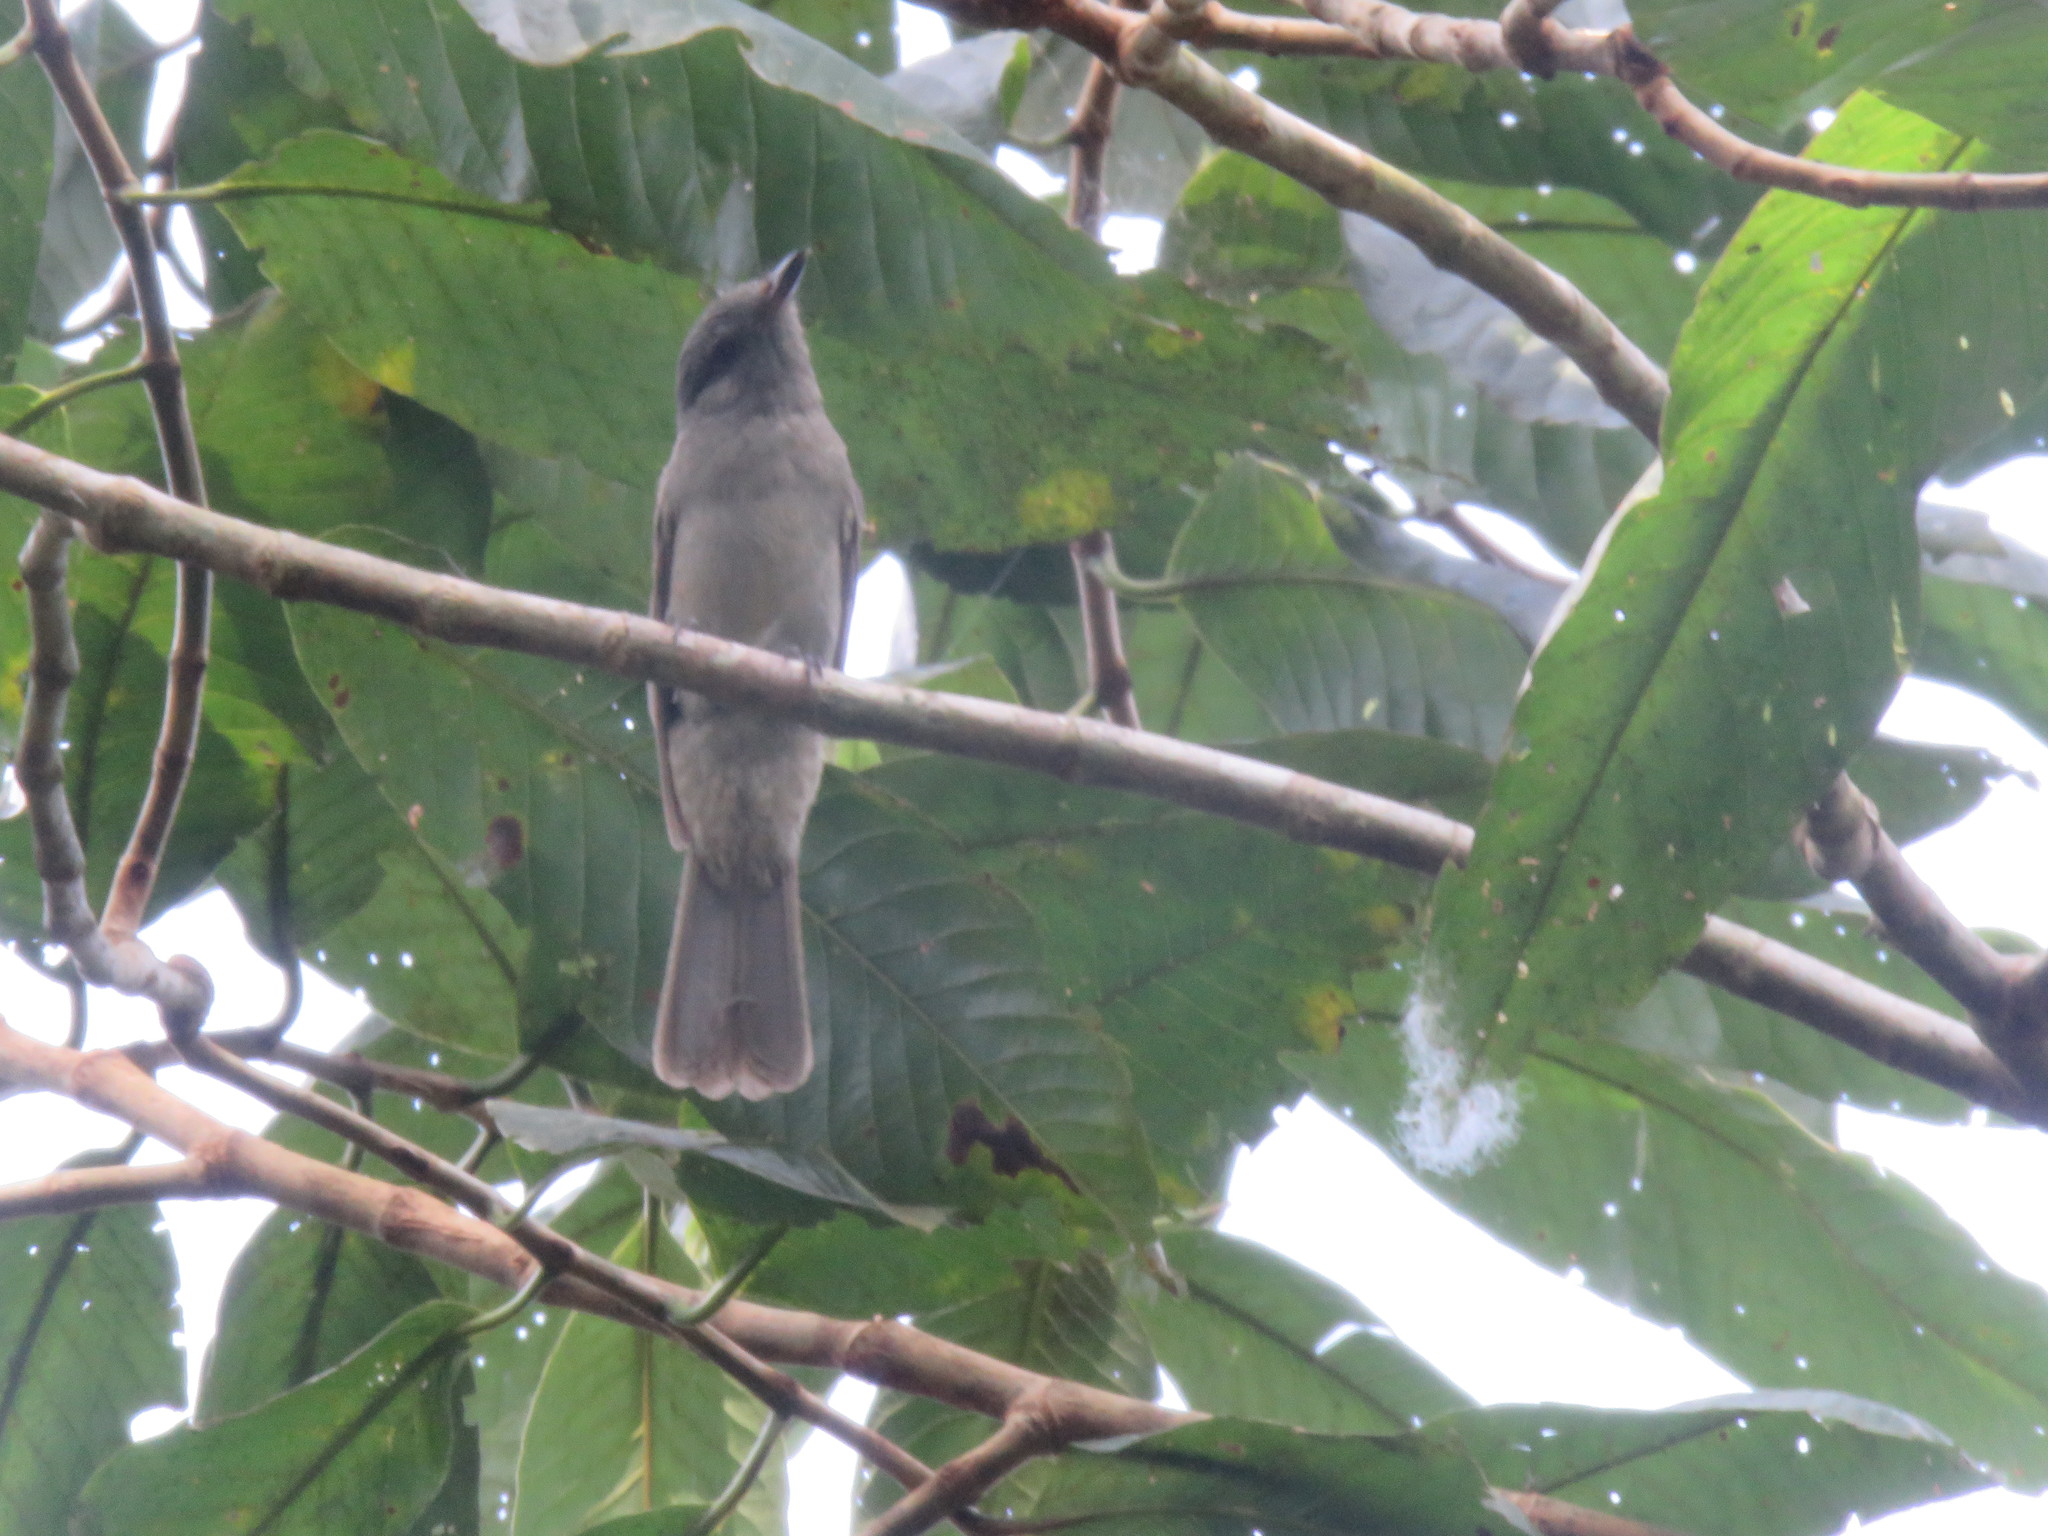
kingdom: Animalia
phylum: Chordata
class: Aves
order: Passeriformes
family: Cotingidae
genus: Lipaugus
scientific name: Lipaugus vociferans
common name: Screaming piha
